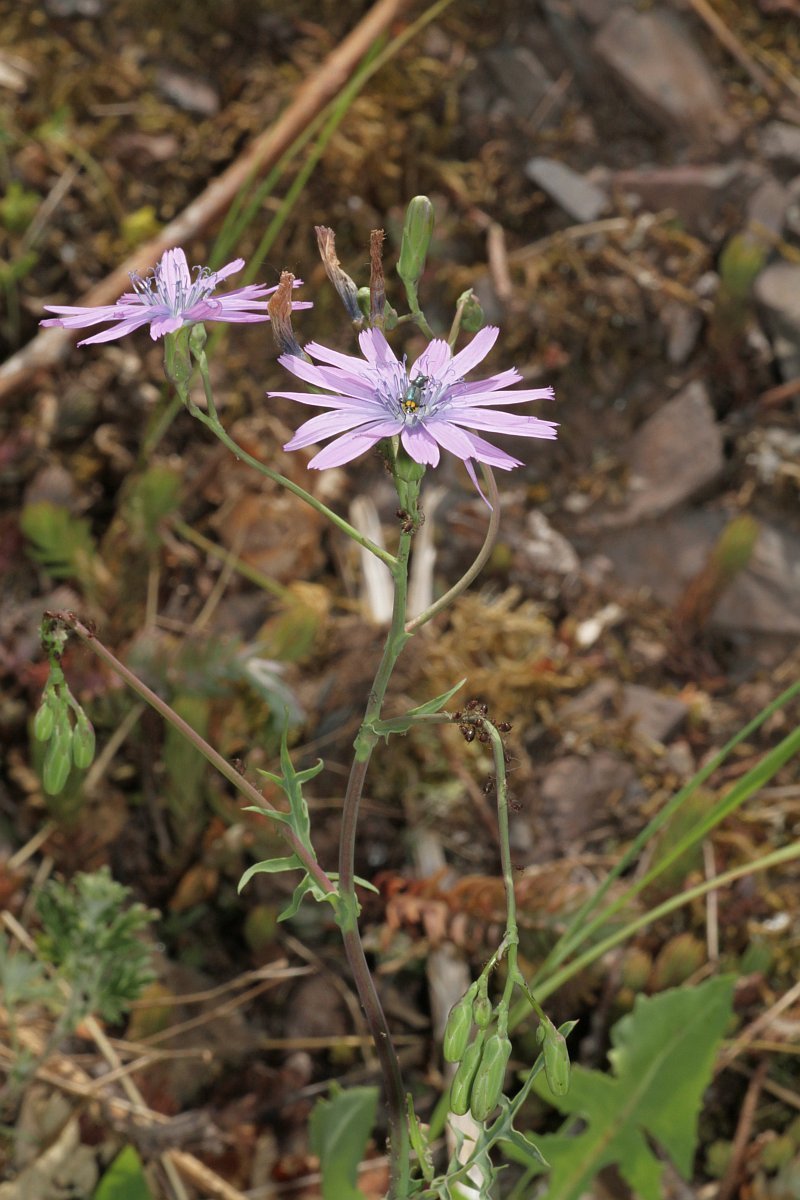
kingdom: Plantae
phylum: Tracheophyta
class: Magnoliopsida
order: Asterales
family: Asteraceae
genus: Lactuca
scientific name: Lactuca perennis
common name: Mountain lettuce
